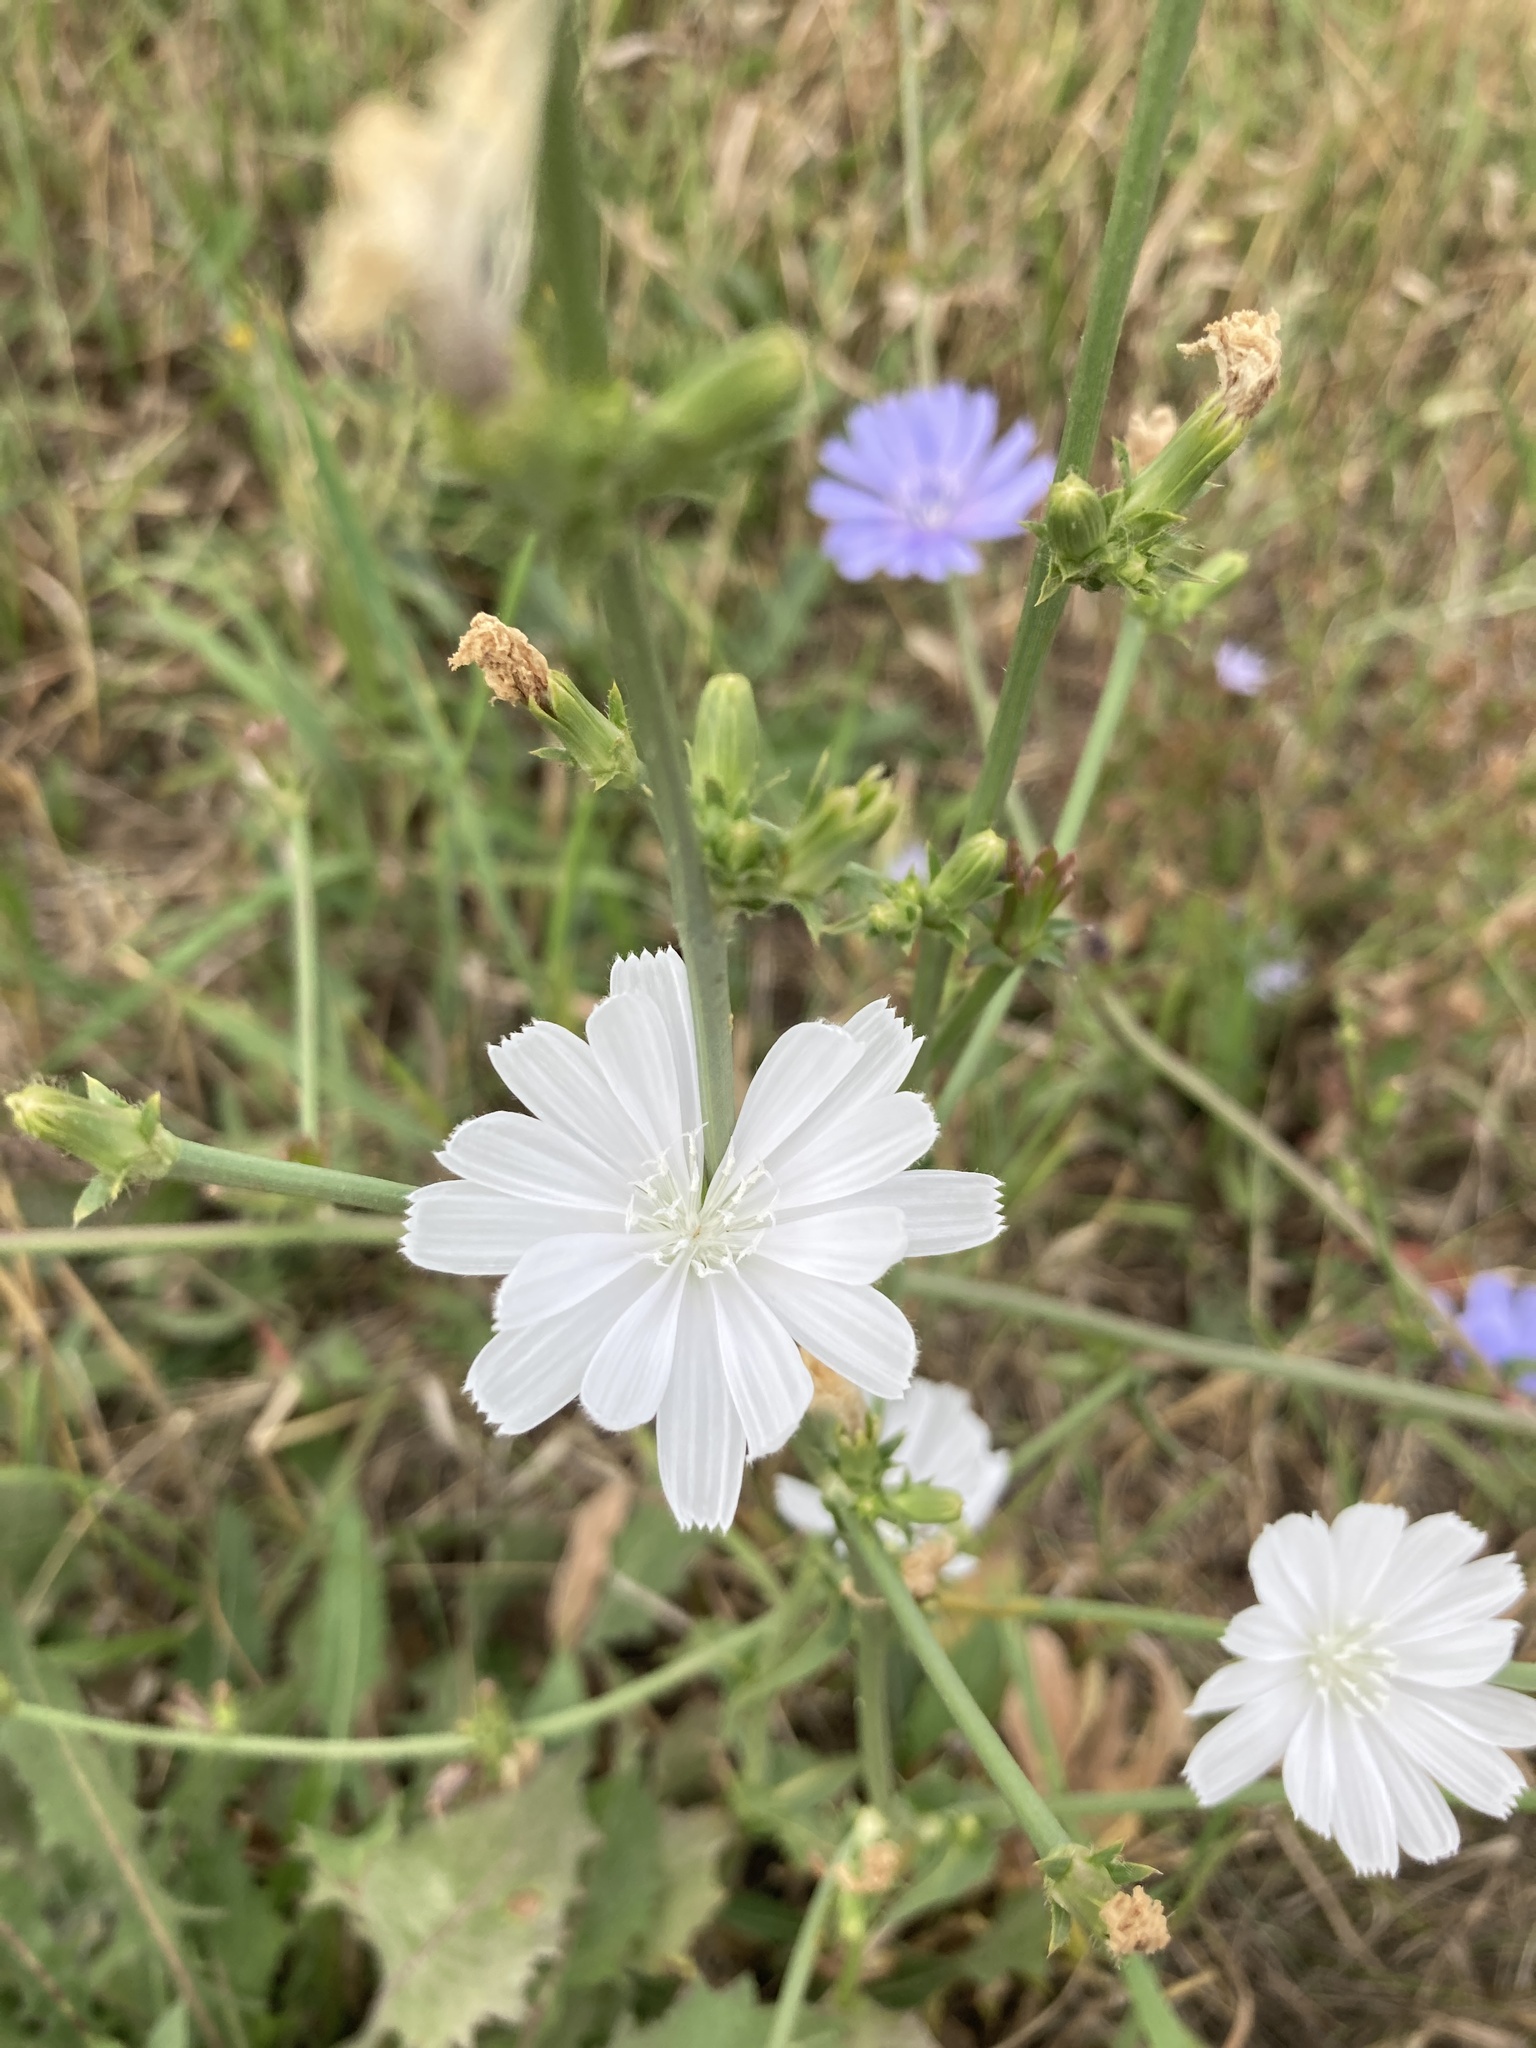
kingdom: Plantae
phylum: Tracheophyta
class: Magnoliopsida
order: Asterales
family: Asteraceae
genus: Cichorium
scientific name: Cichorium intybus
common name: Chicory
